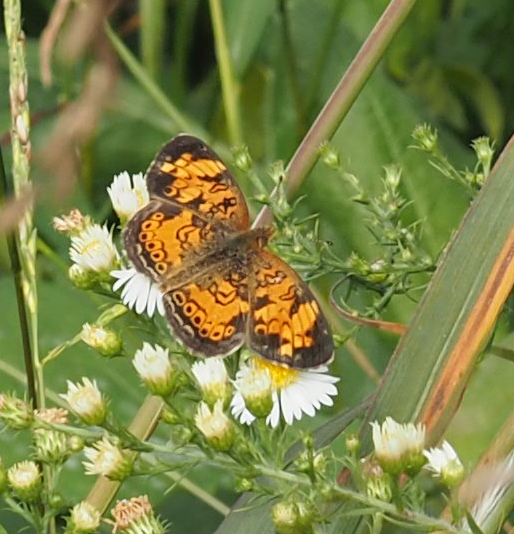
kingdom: Animalia
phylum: Arthropoda
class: Insecta
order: Lepidoptera
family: Nymphalidae
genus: Phyciodes
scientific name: Phyciodes tharos
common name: Pearl crescent
